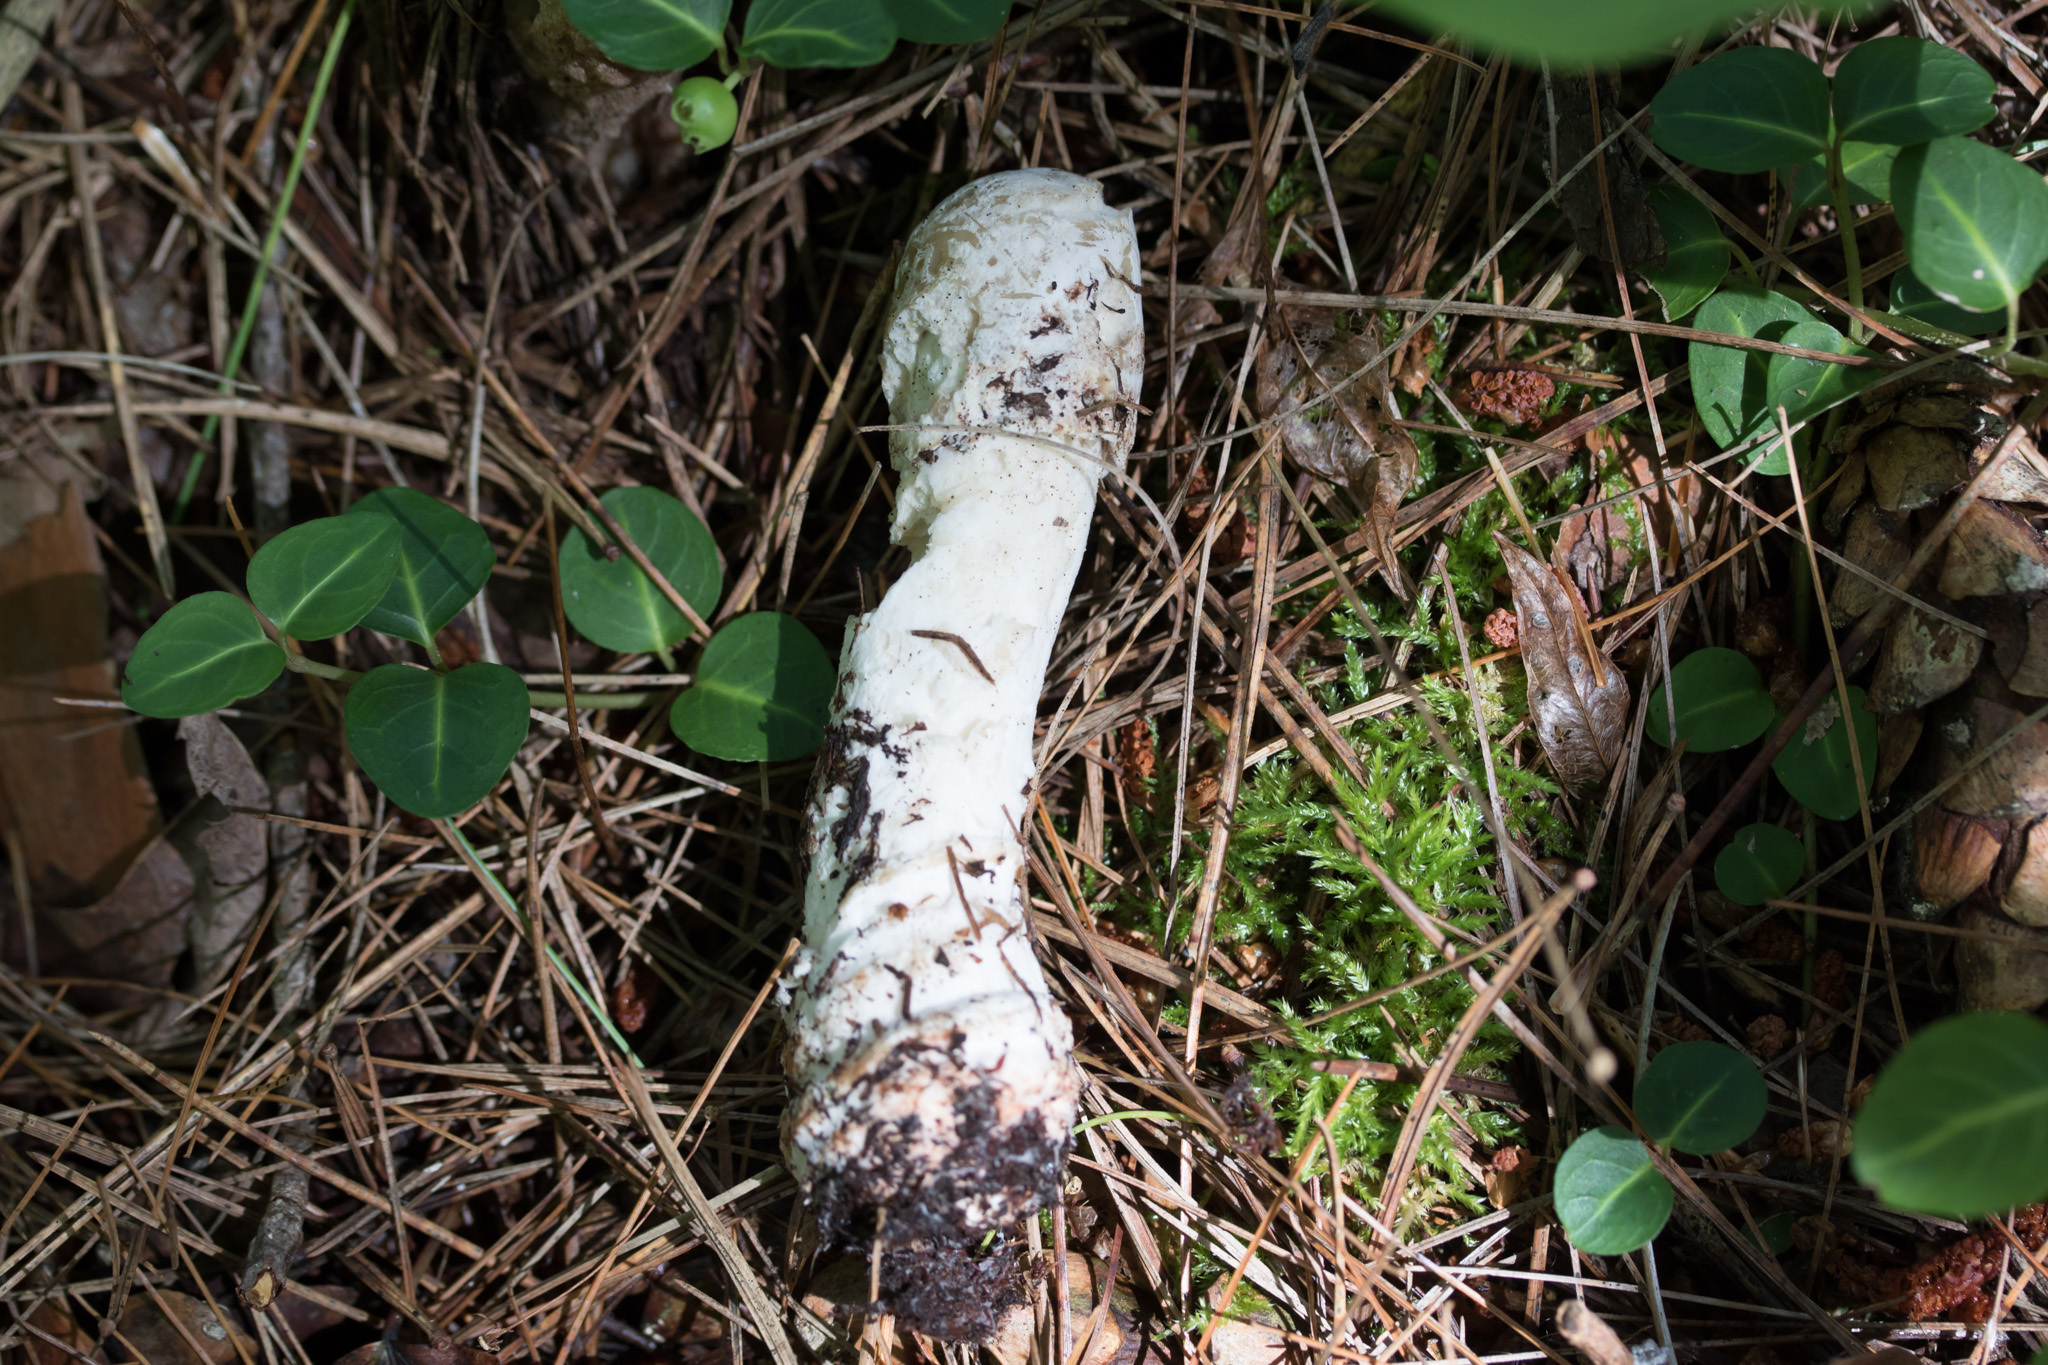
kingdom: Fungi
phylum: Ascomycota
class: Sordariomycetes
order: Hypocreales
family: Hypocreaceae
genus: Hypomyces
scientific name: Hypomyces hyalinus
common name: Amanita mold
